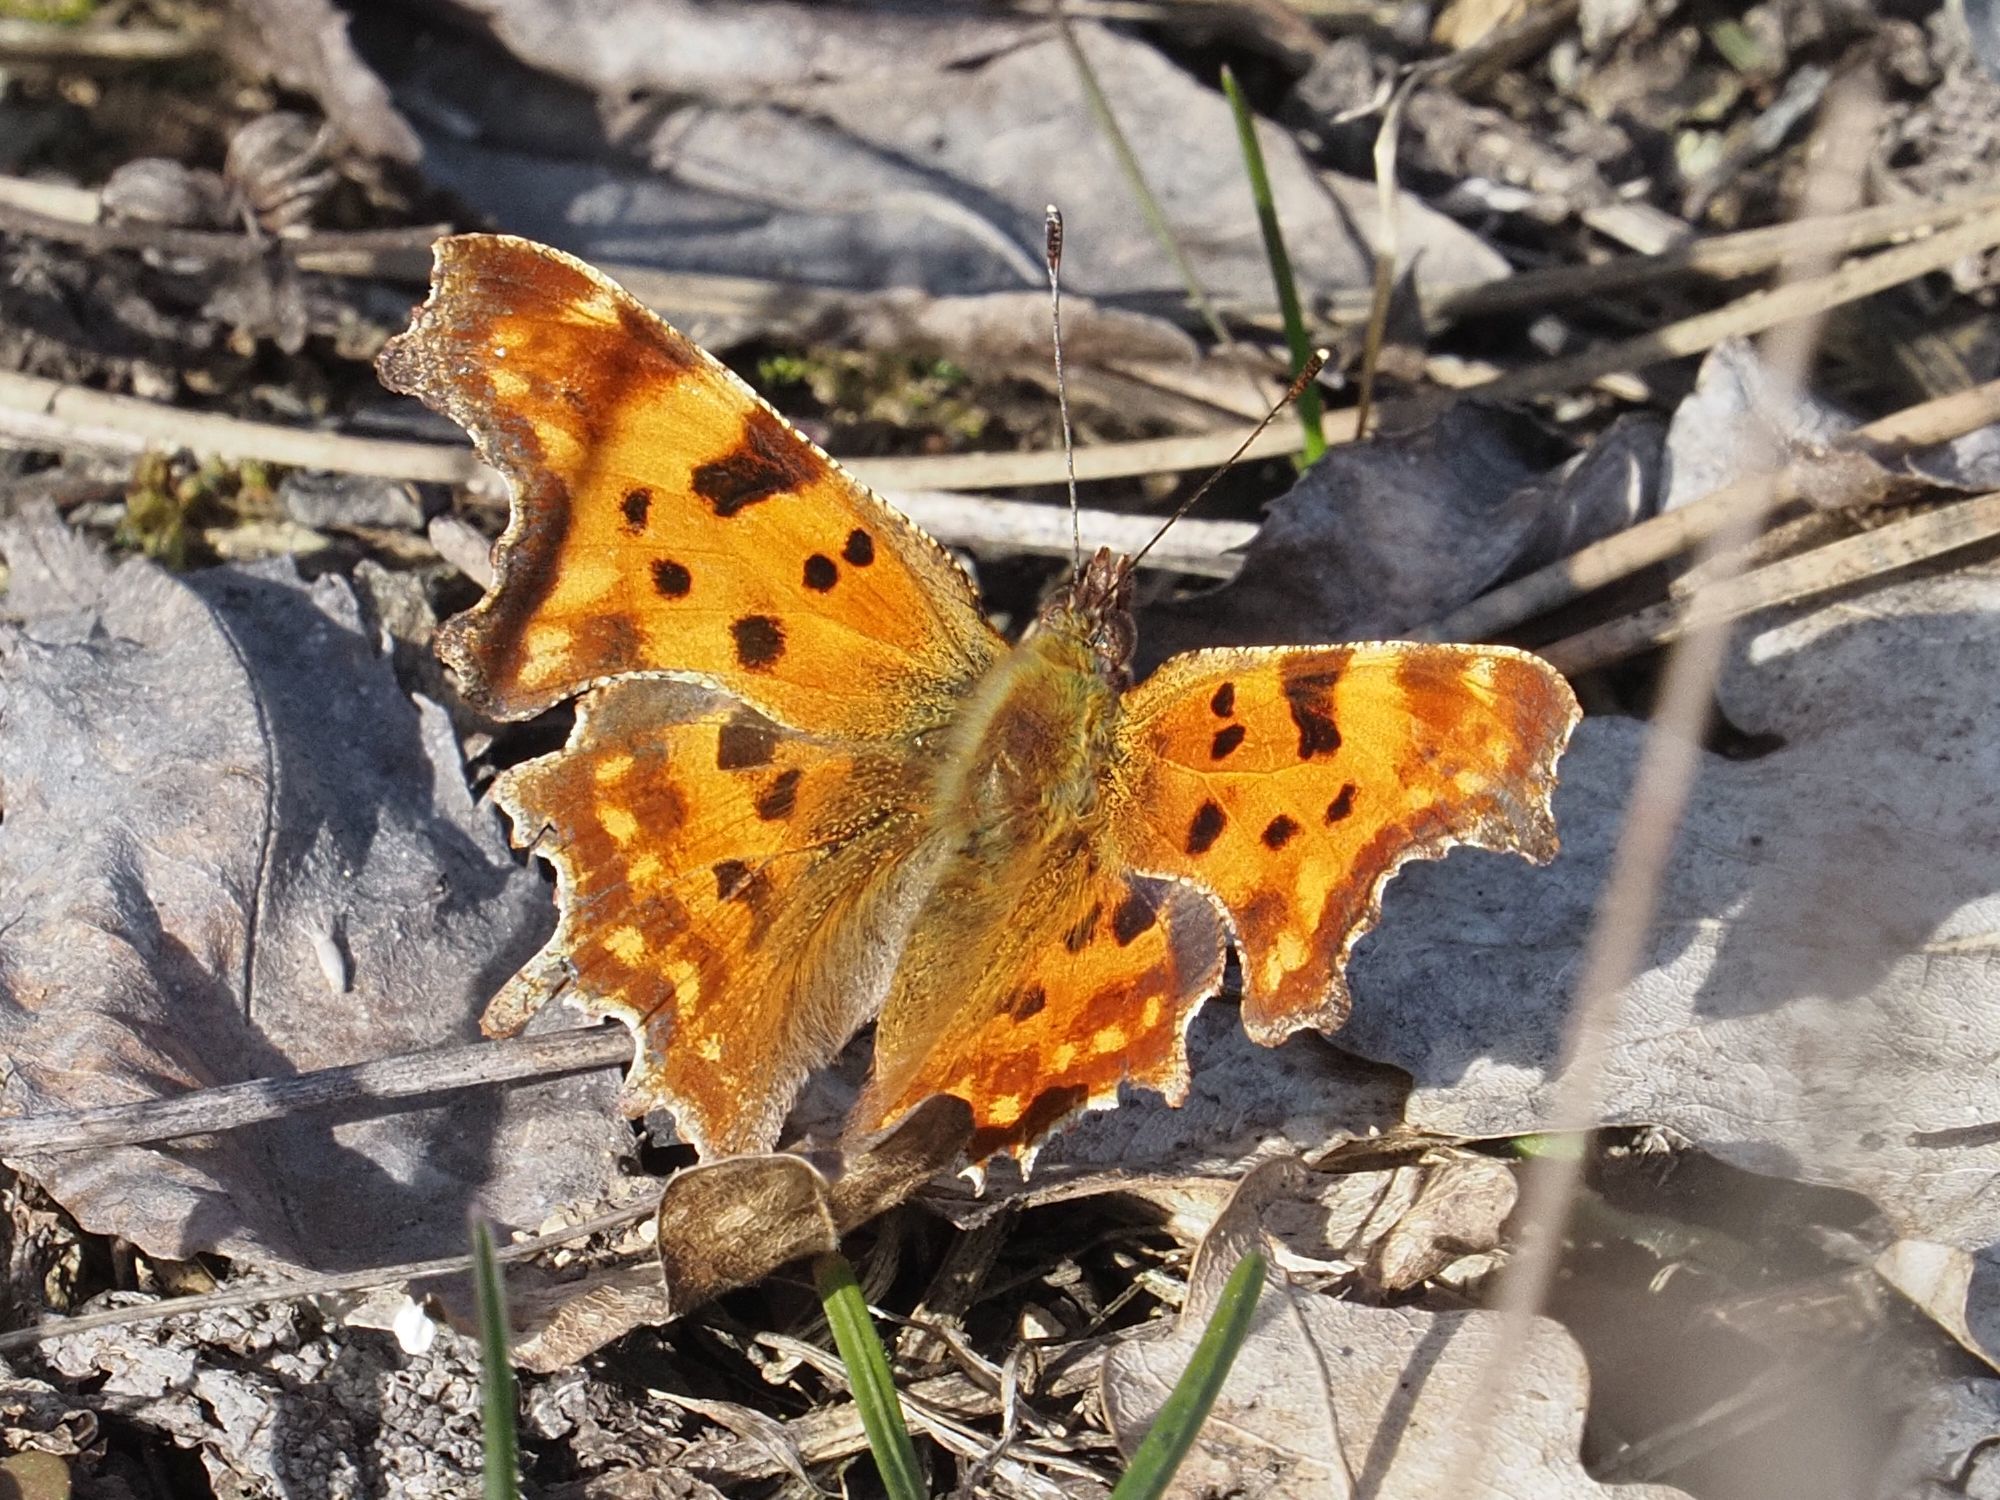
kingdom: Animalia
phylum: Arthropoda
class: Insecta
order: Lepidoptera
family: Nymphalidae
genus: Polygonia
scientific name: Polygonia c-album
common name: Comma
